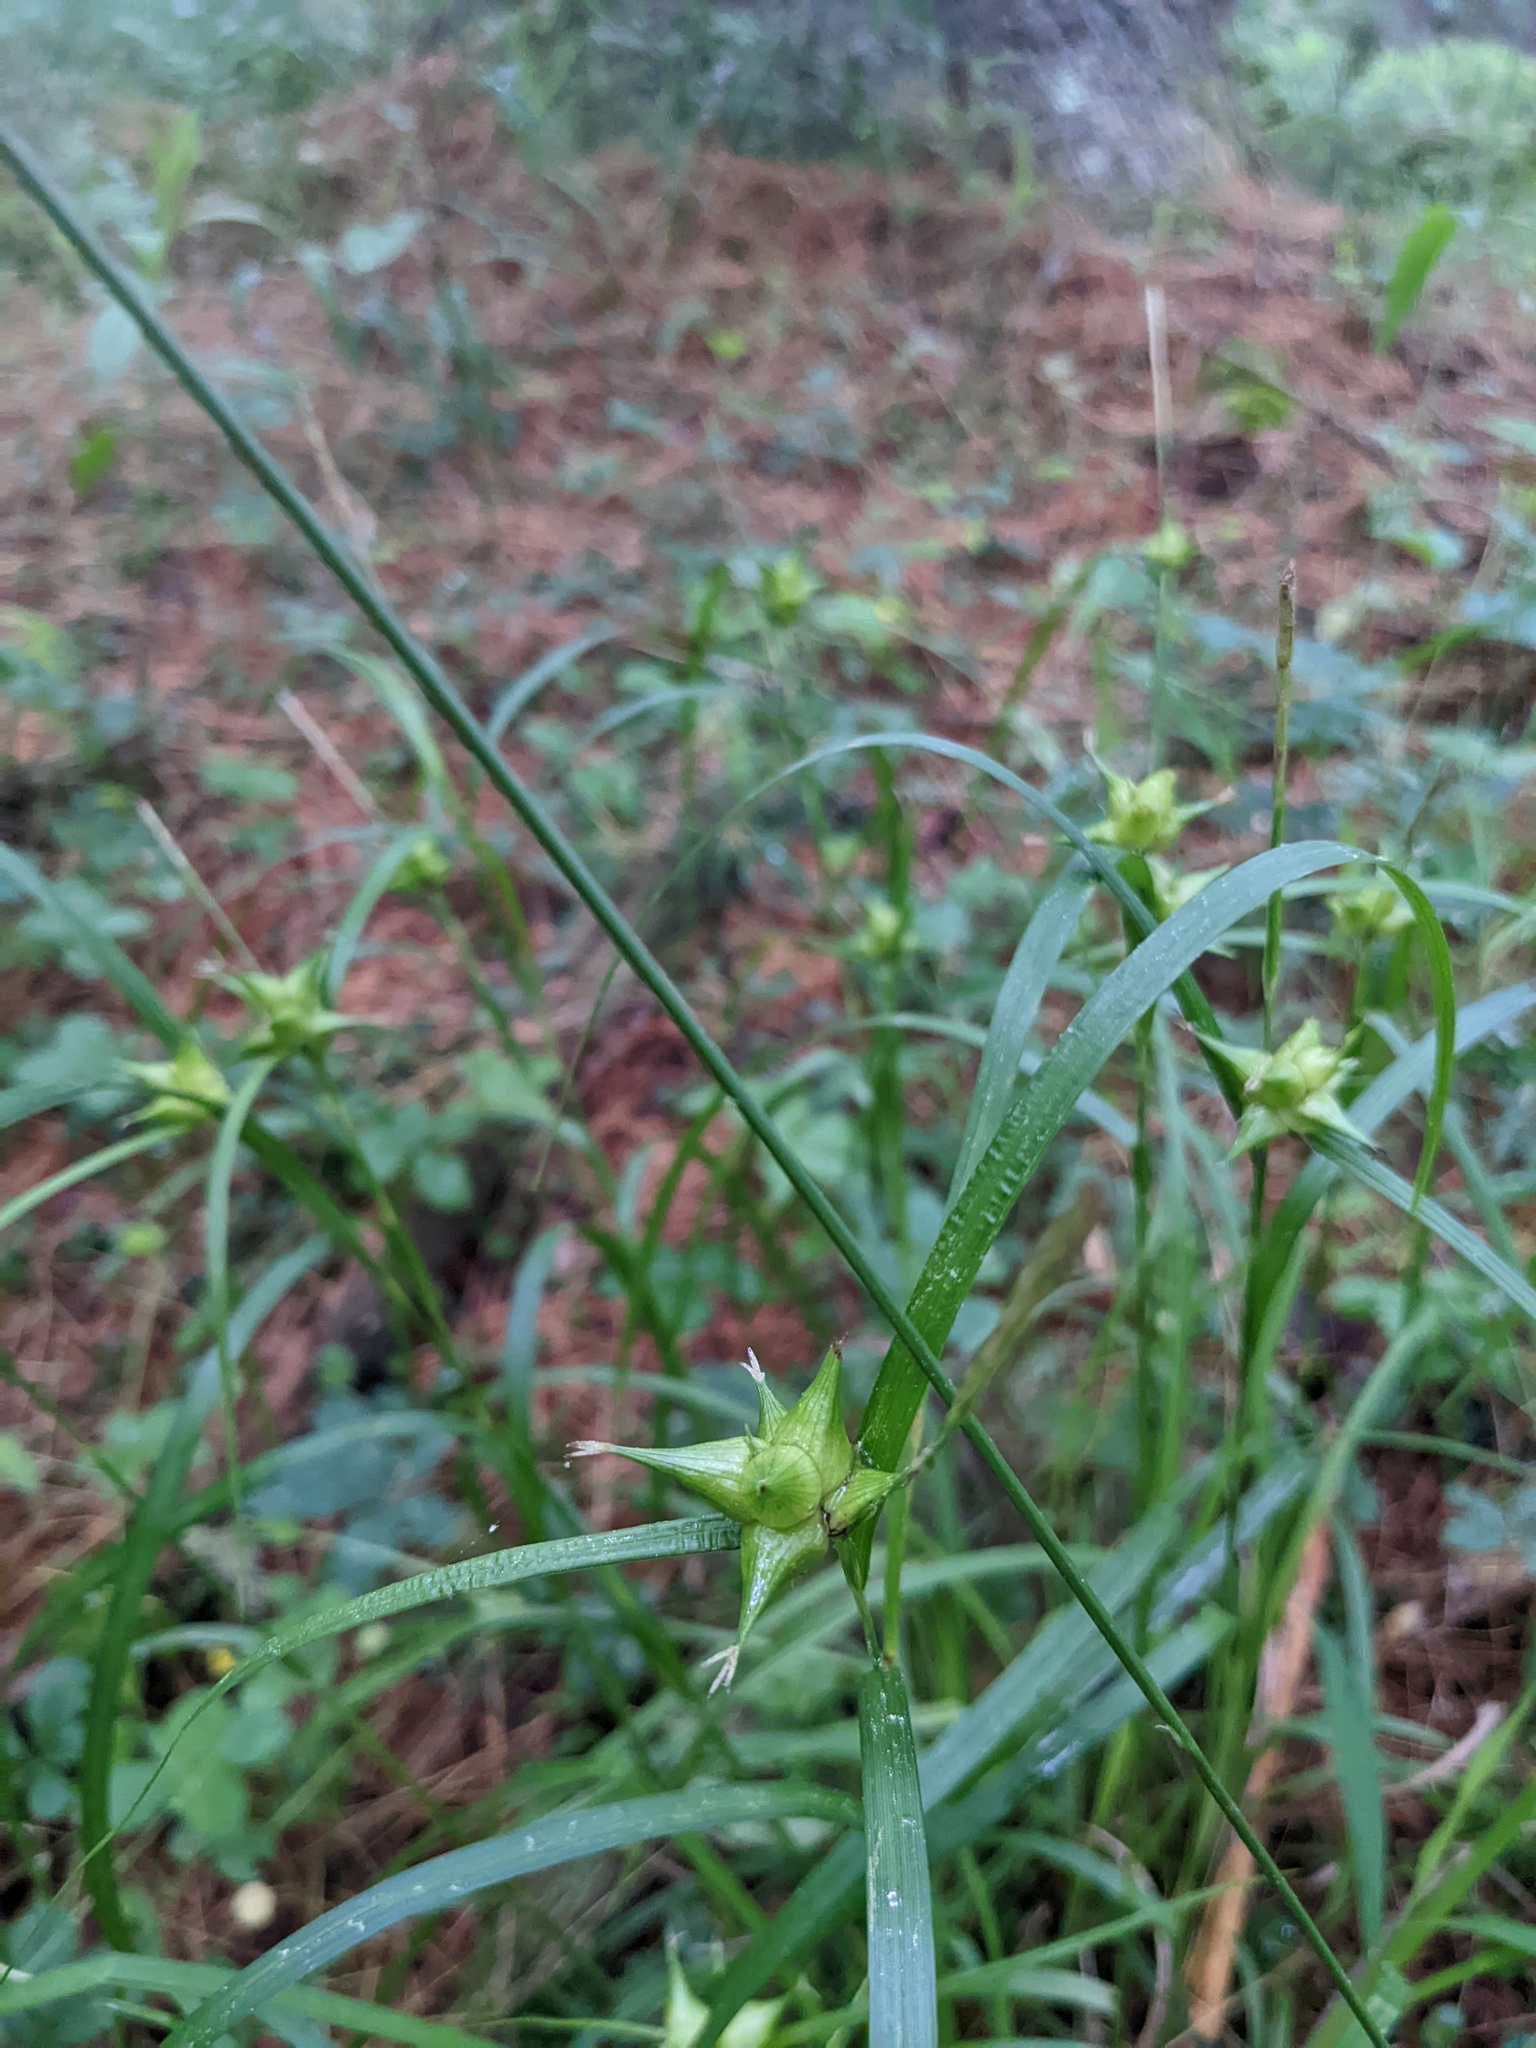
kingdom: Plantae
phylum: Tracheophyta
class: Liliopsida
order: Poales
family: Cyperaceae
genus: Carex
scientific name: Carex intumescens
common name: Greater bladder sedge
